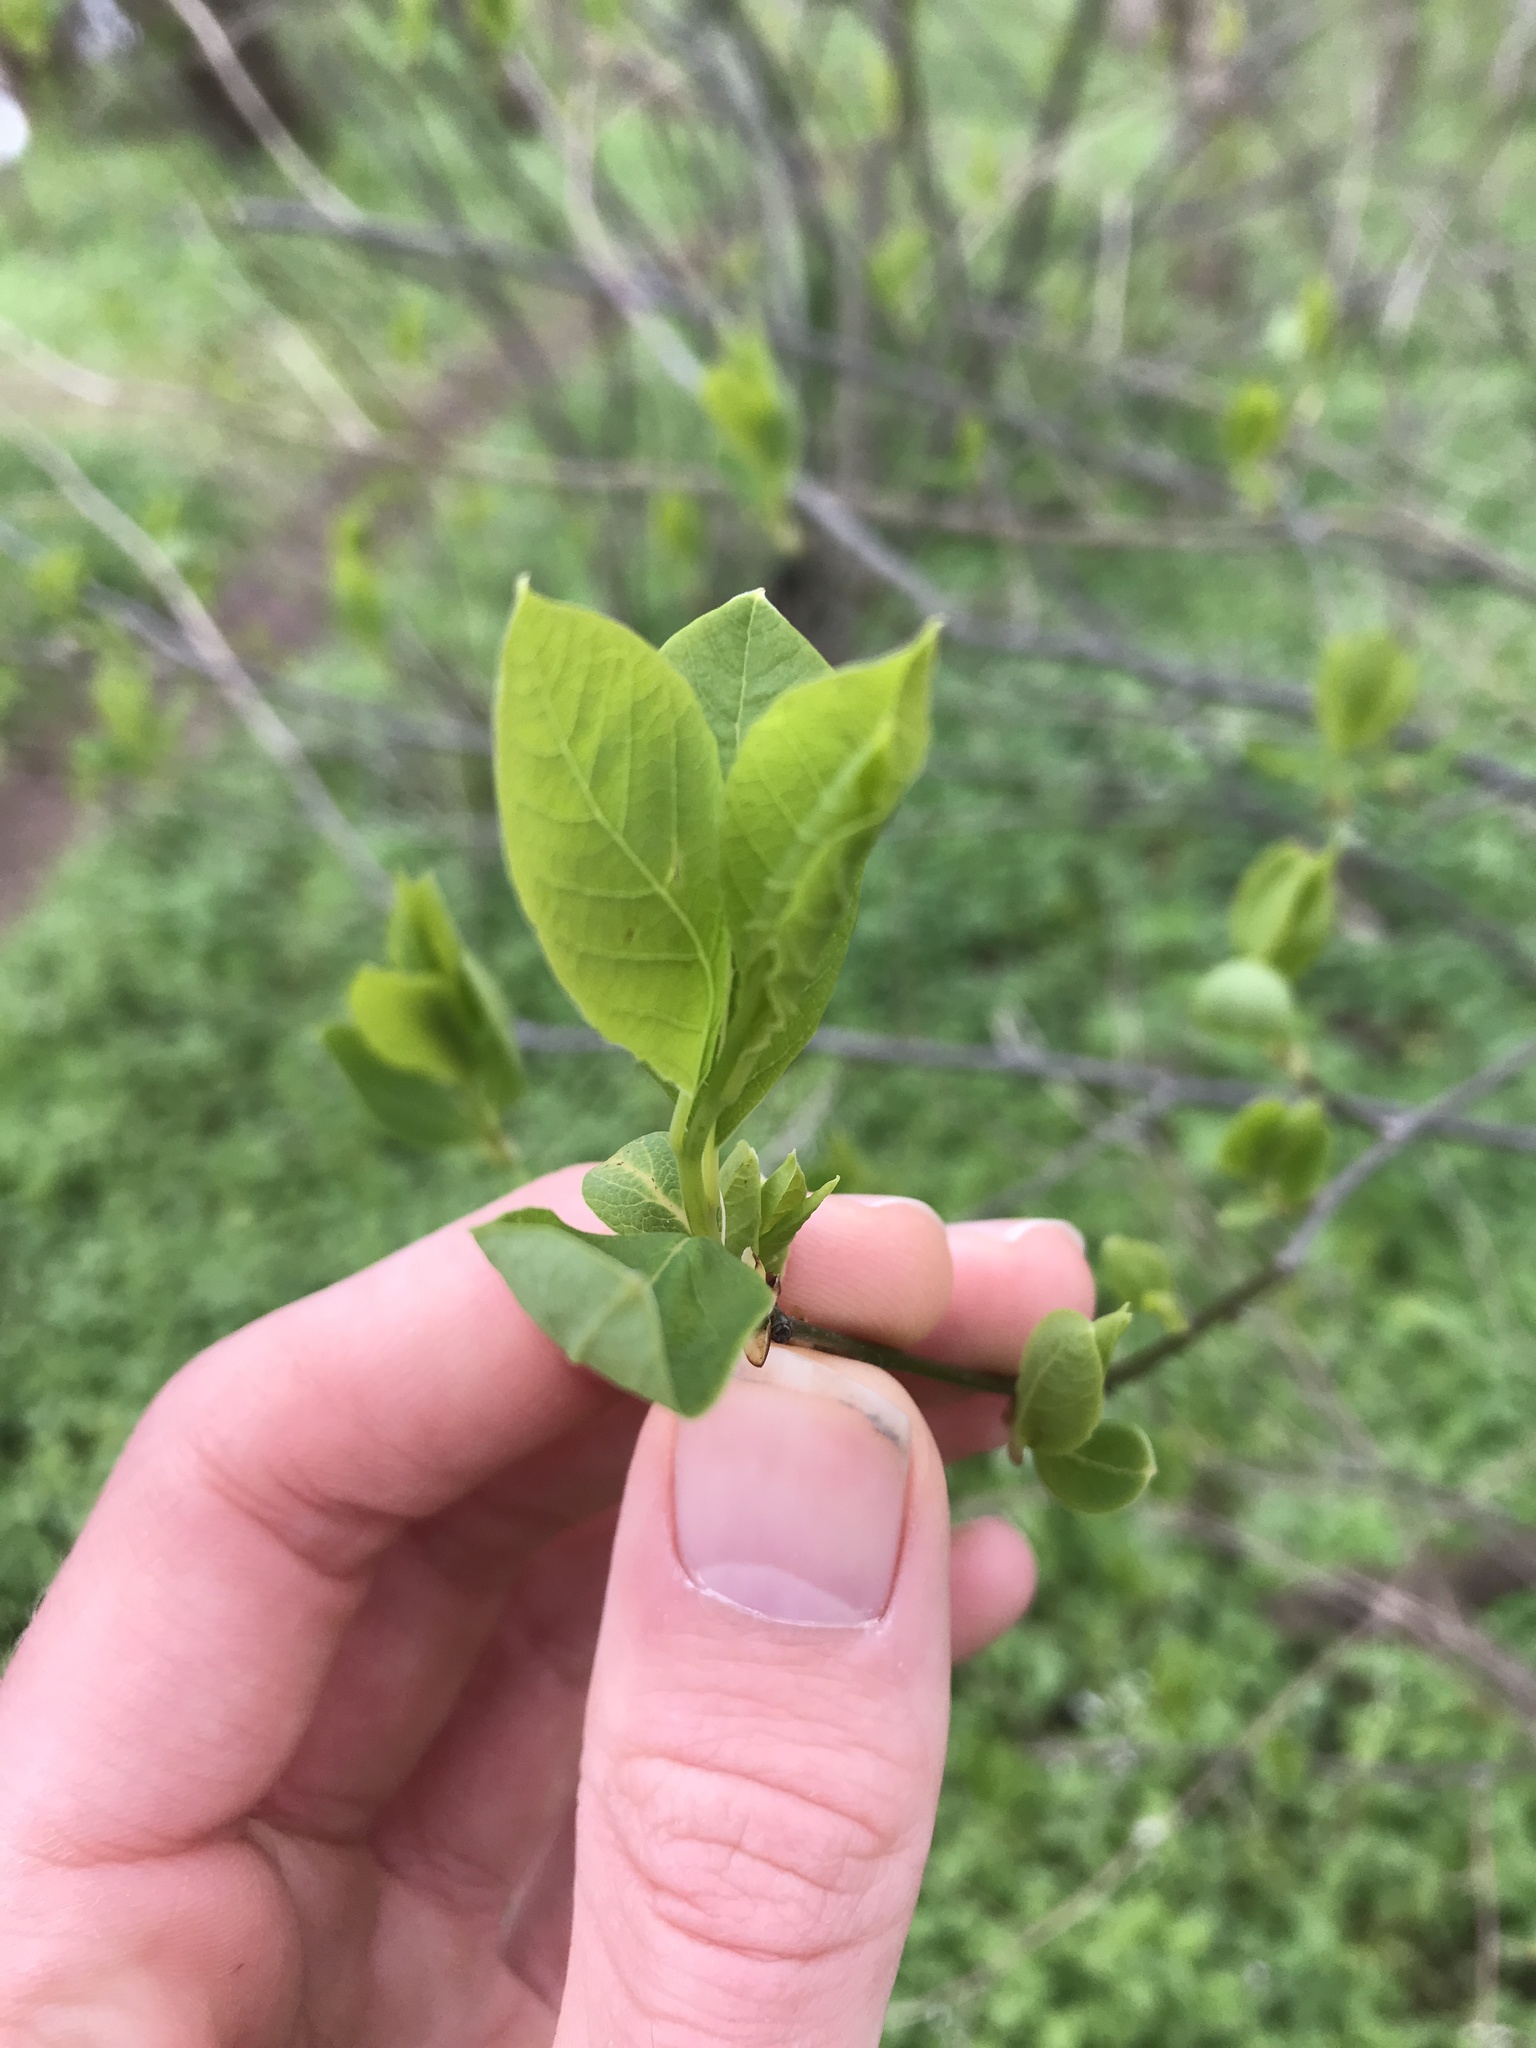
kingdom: Plantae
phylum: Tracheophyta
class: Magnoliopsida
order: Laurales
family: Lauraceae
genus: Lindera
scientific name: Lindera benzoin
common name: Spicebush
